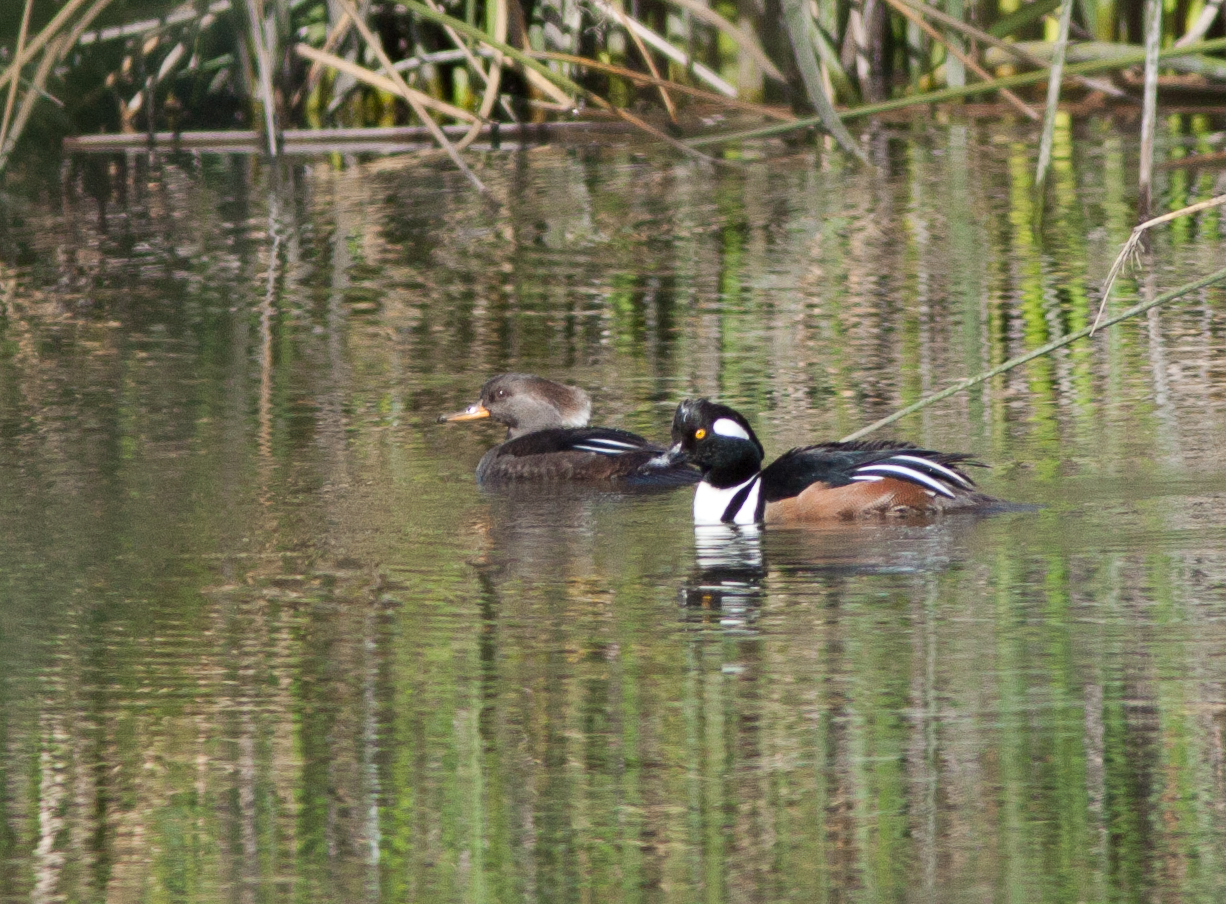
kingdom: Animalia
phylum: Chordata
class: Aves
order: Anseriformes
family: Anatidae
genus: Lophodytes
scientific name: Lophodytes cucullatus
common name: Hooded merganser
